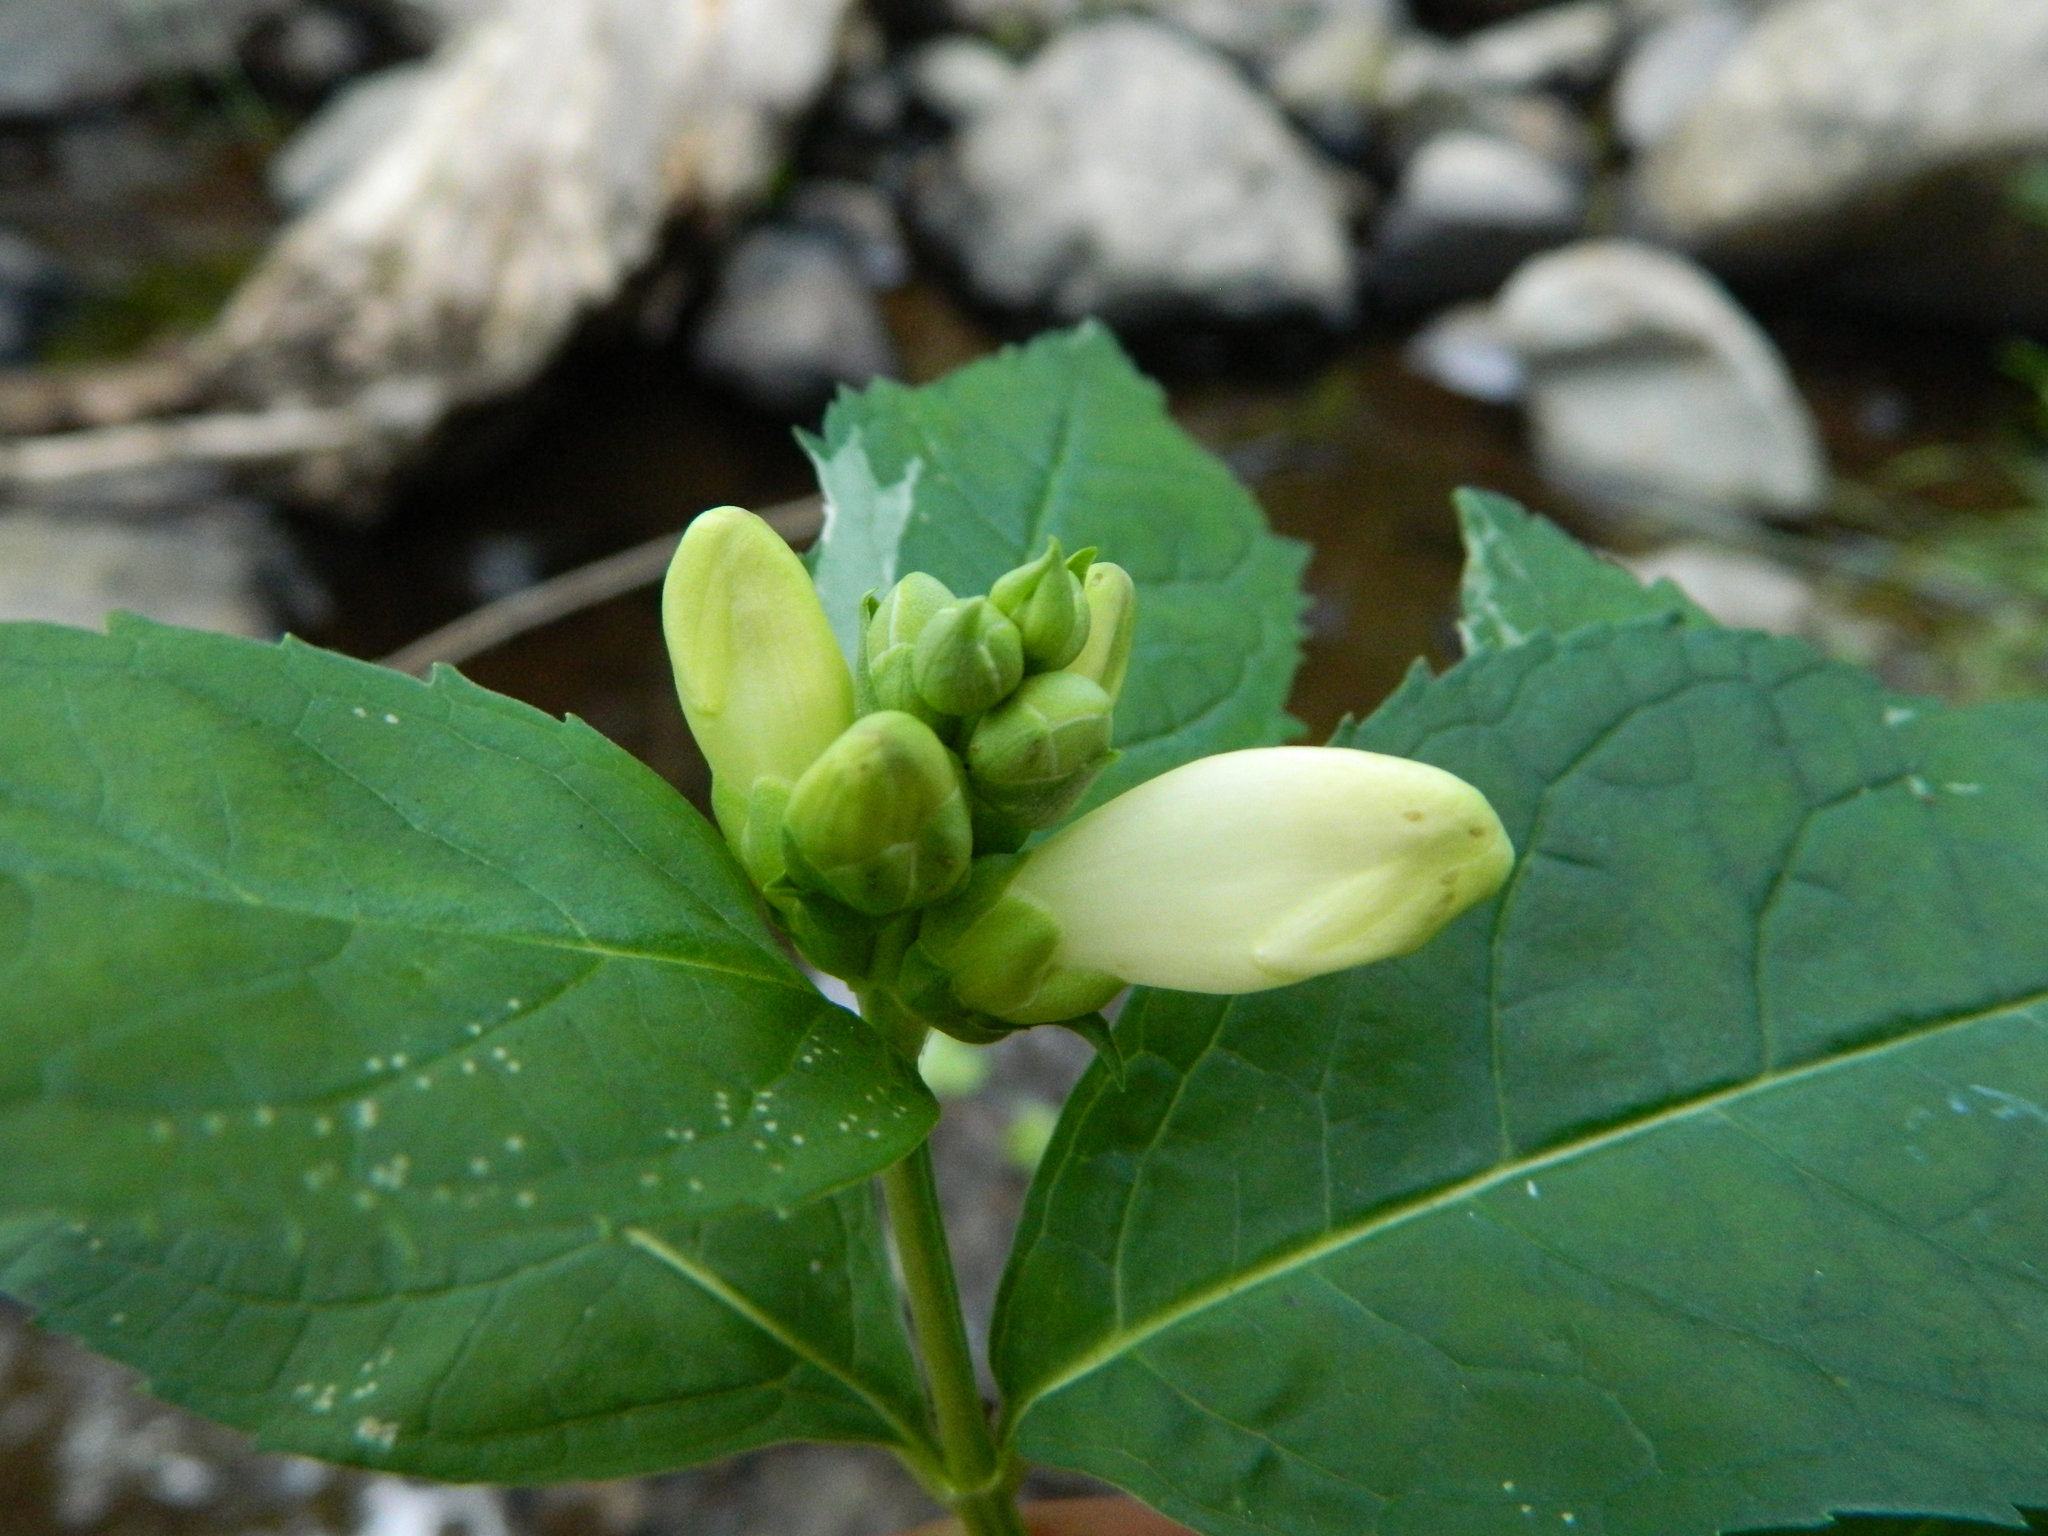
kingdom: Plantae
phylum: Tracheophyta
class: Magnoliopsida
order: Lamiales
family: Plantaginaceae
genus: Chelone
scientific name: Chelone glabra
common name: Snakehead
